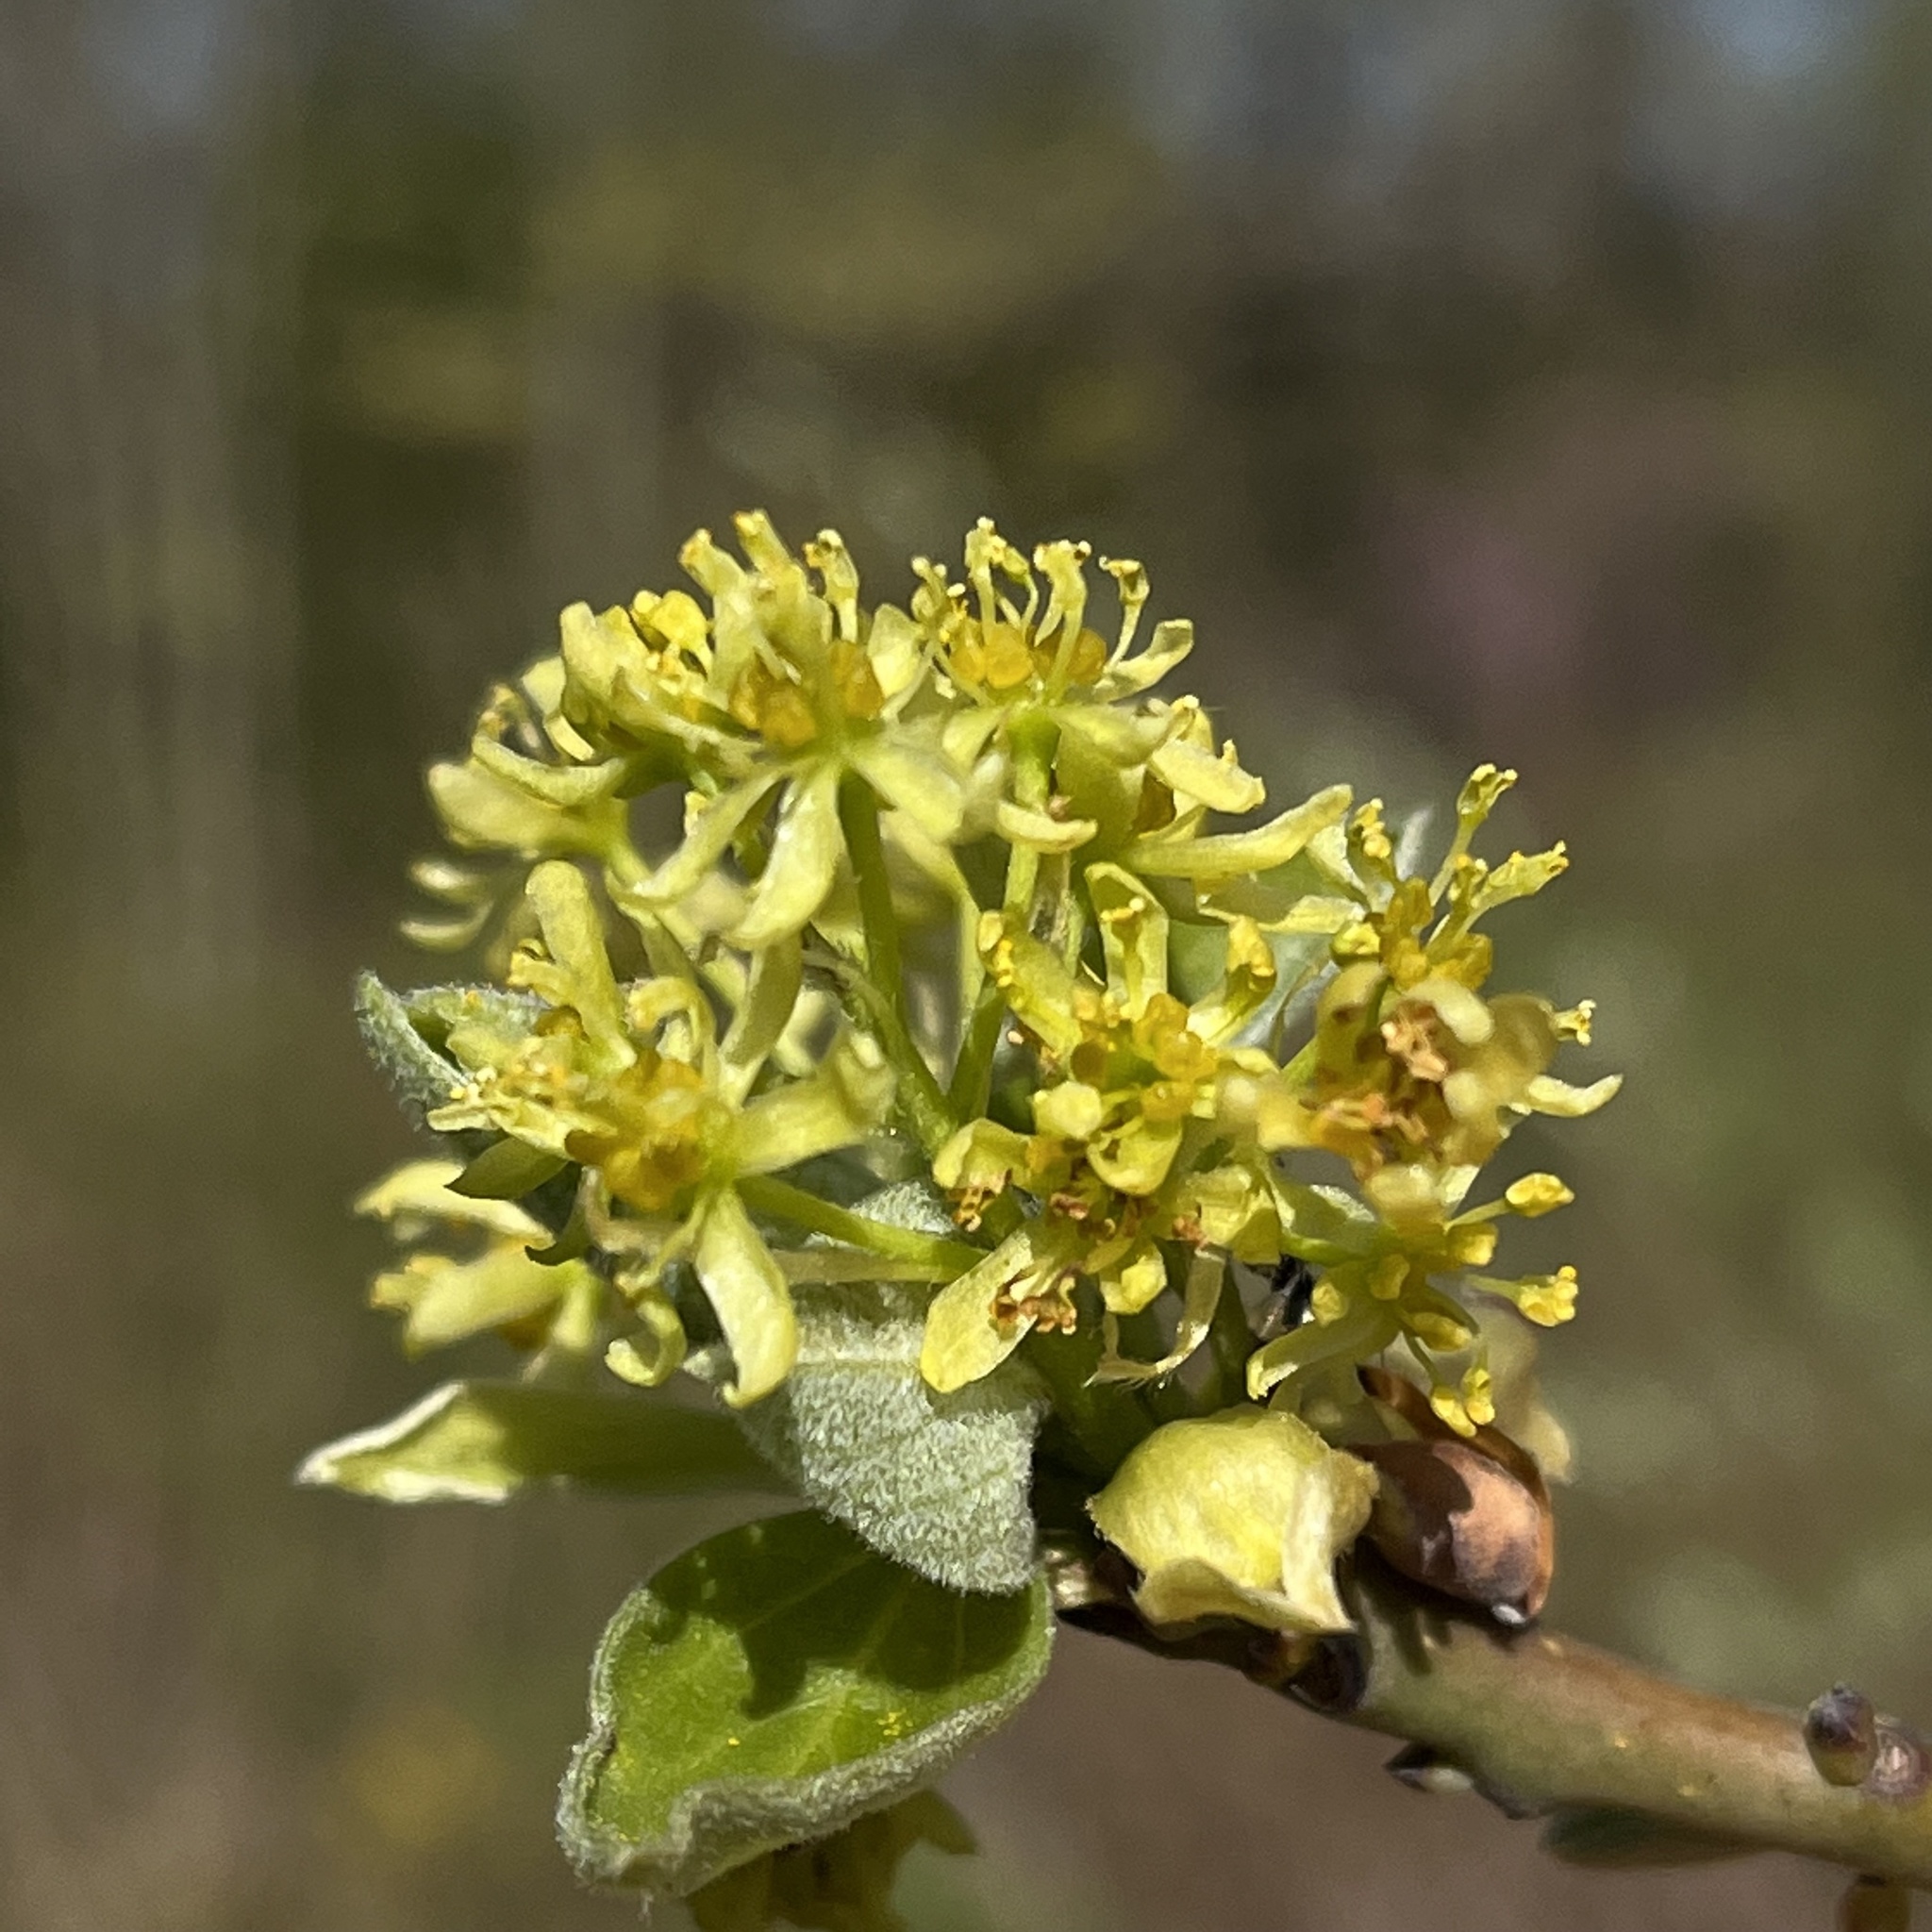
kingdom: Plantae
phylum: Tracheophyta
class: Magnoliopsida
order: Laurales
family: Lauraceae
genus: Sassafras
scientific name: Sassafras albidum
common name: Sassafras
